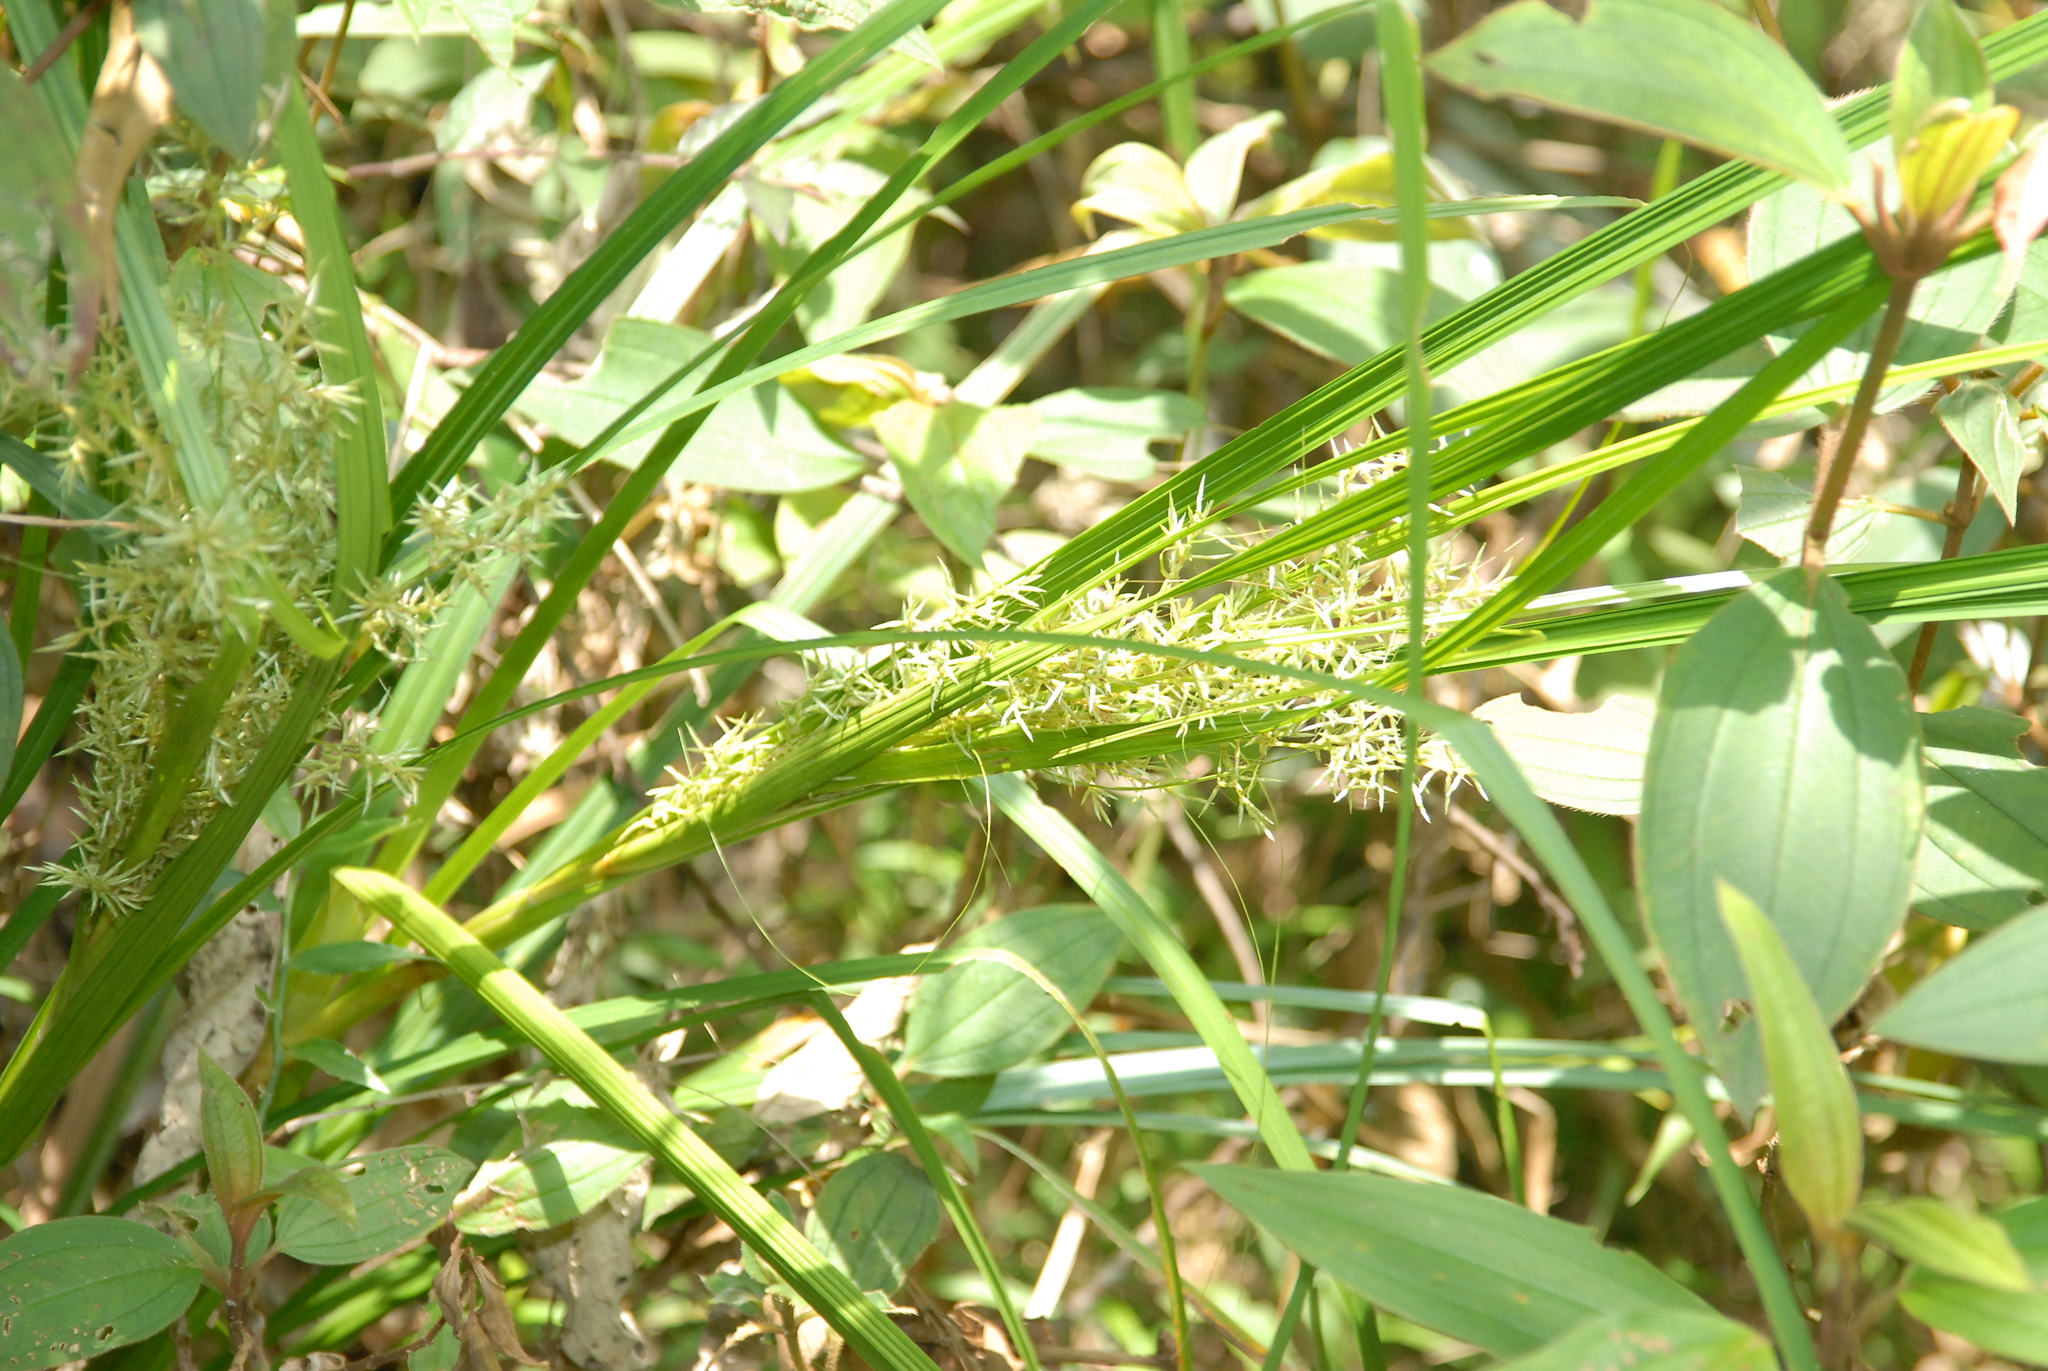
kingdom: Plantae
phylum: Tracheophyta
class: Liliopsida
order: Poales
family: Cyperaceae
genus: Carex
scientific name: Carex cruciata
